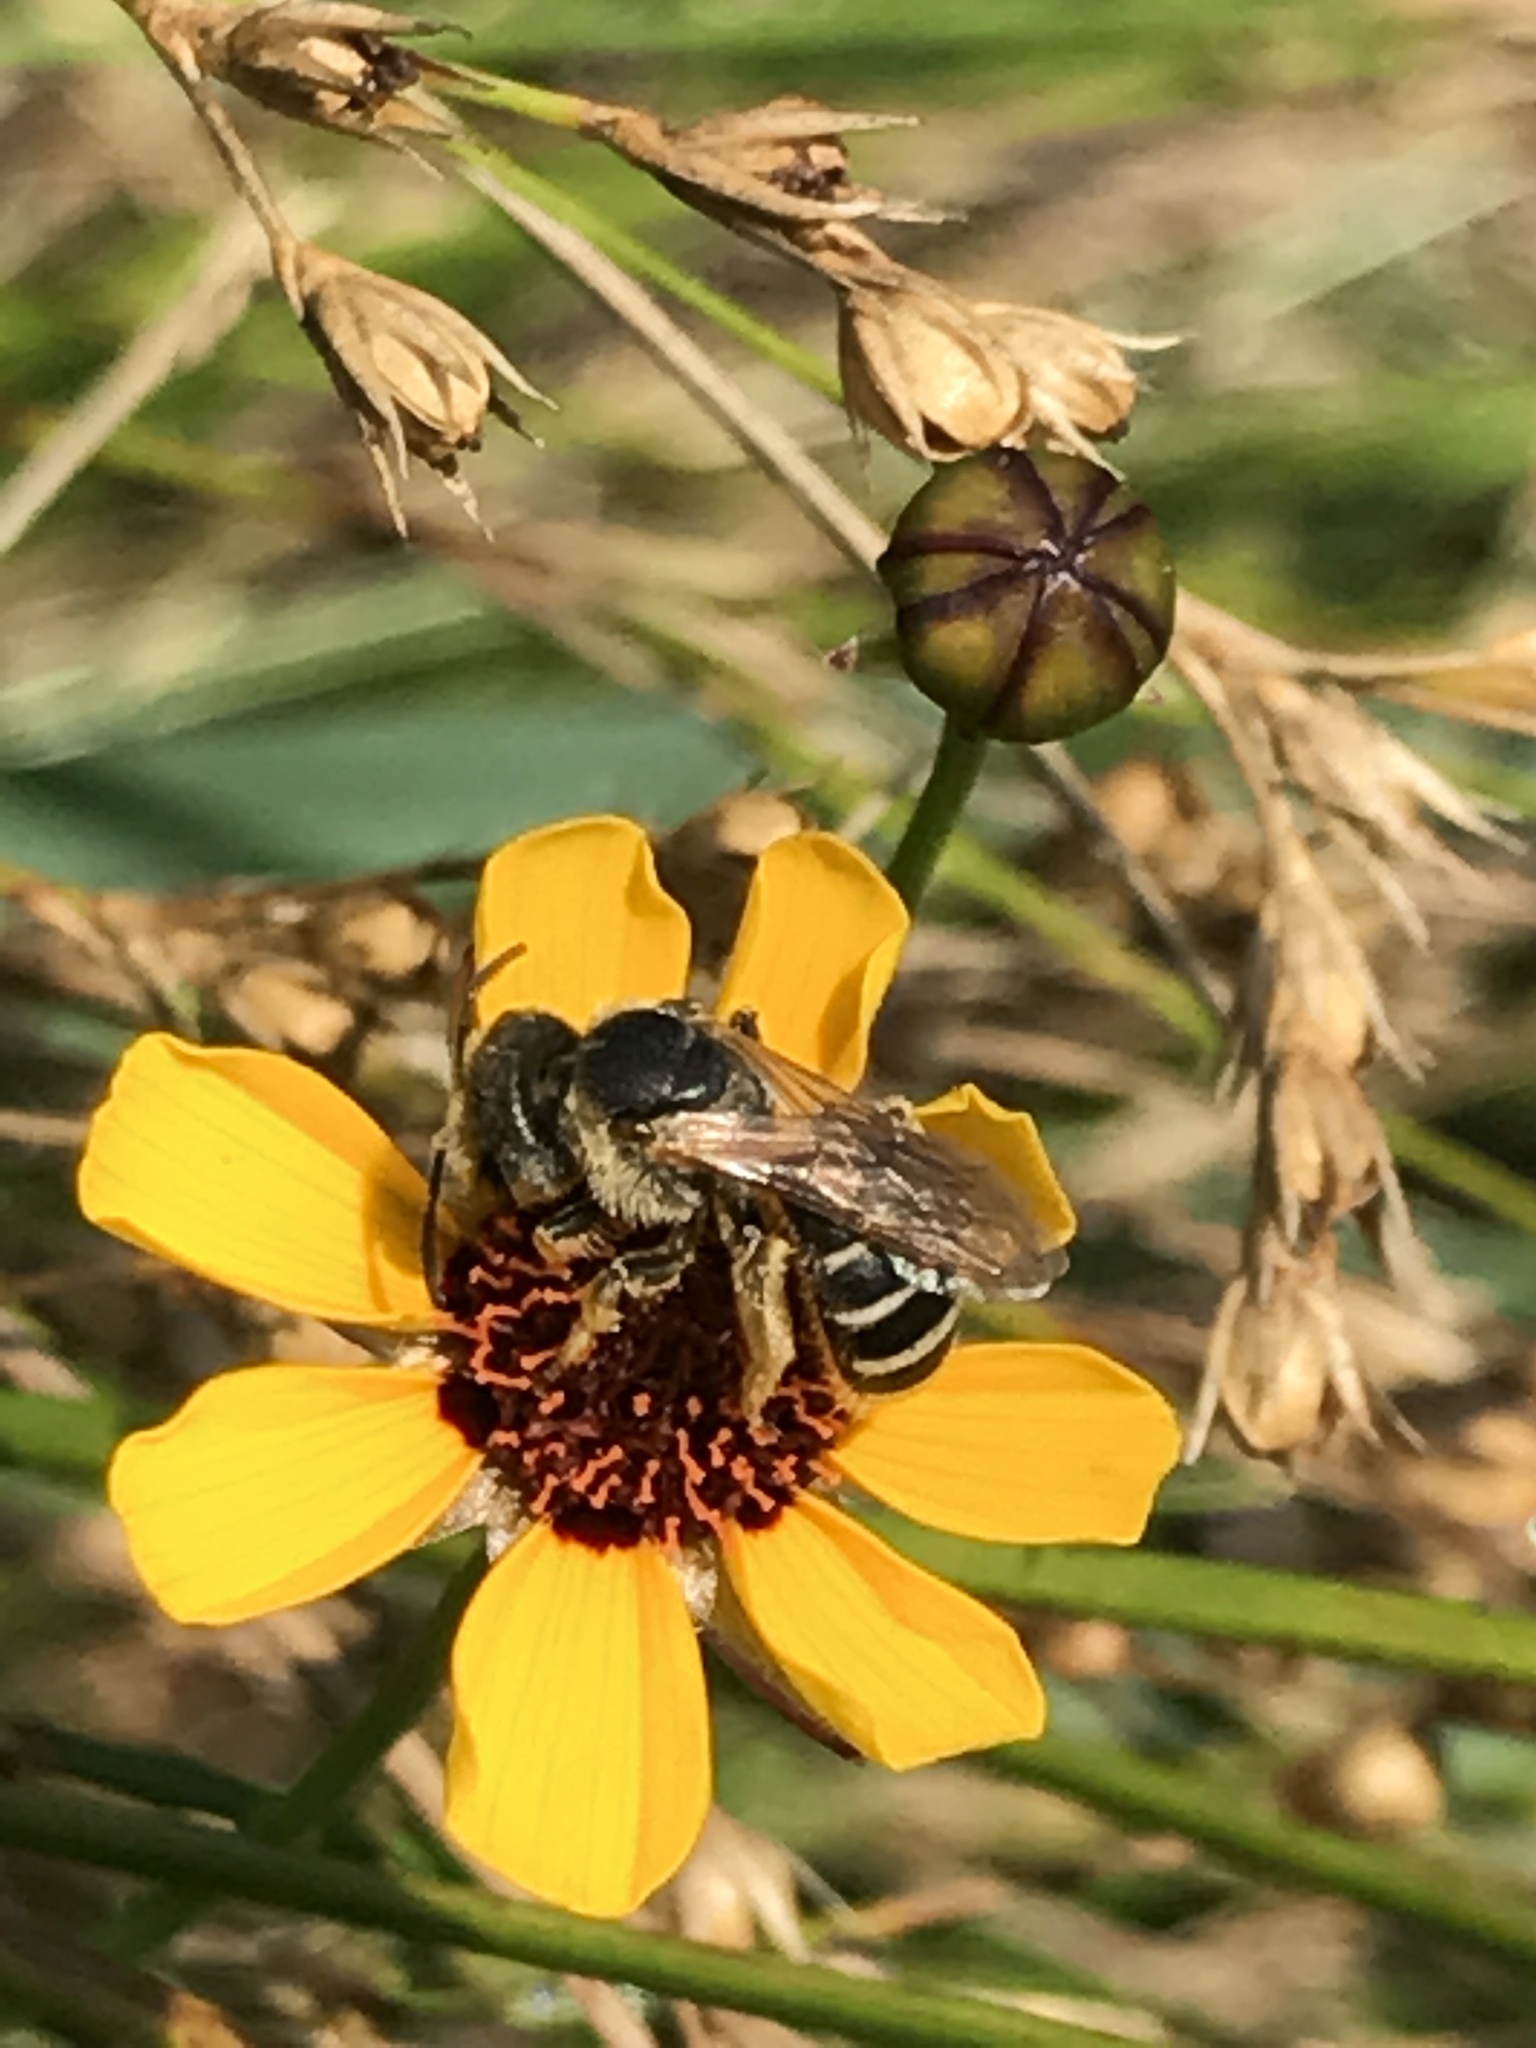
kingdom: Animalia
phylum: Arthropoda
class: Insecta
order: Hymenoptera
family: Halictidae
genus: Halictus
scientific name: Halictus ligatus
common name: Ligated furrow bee
